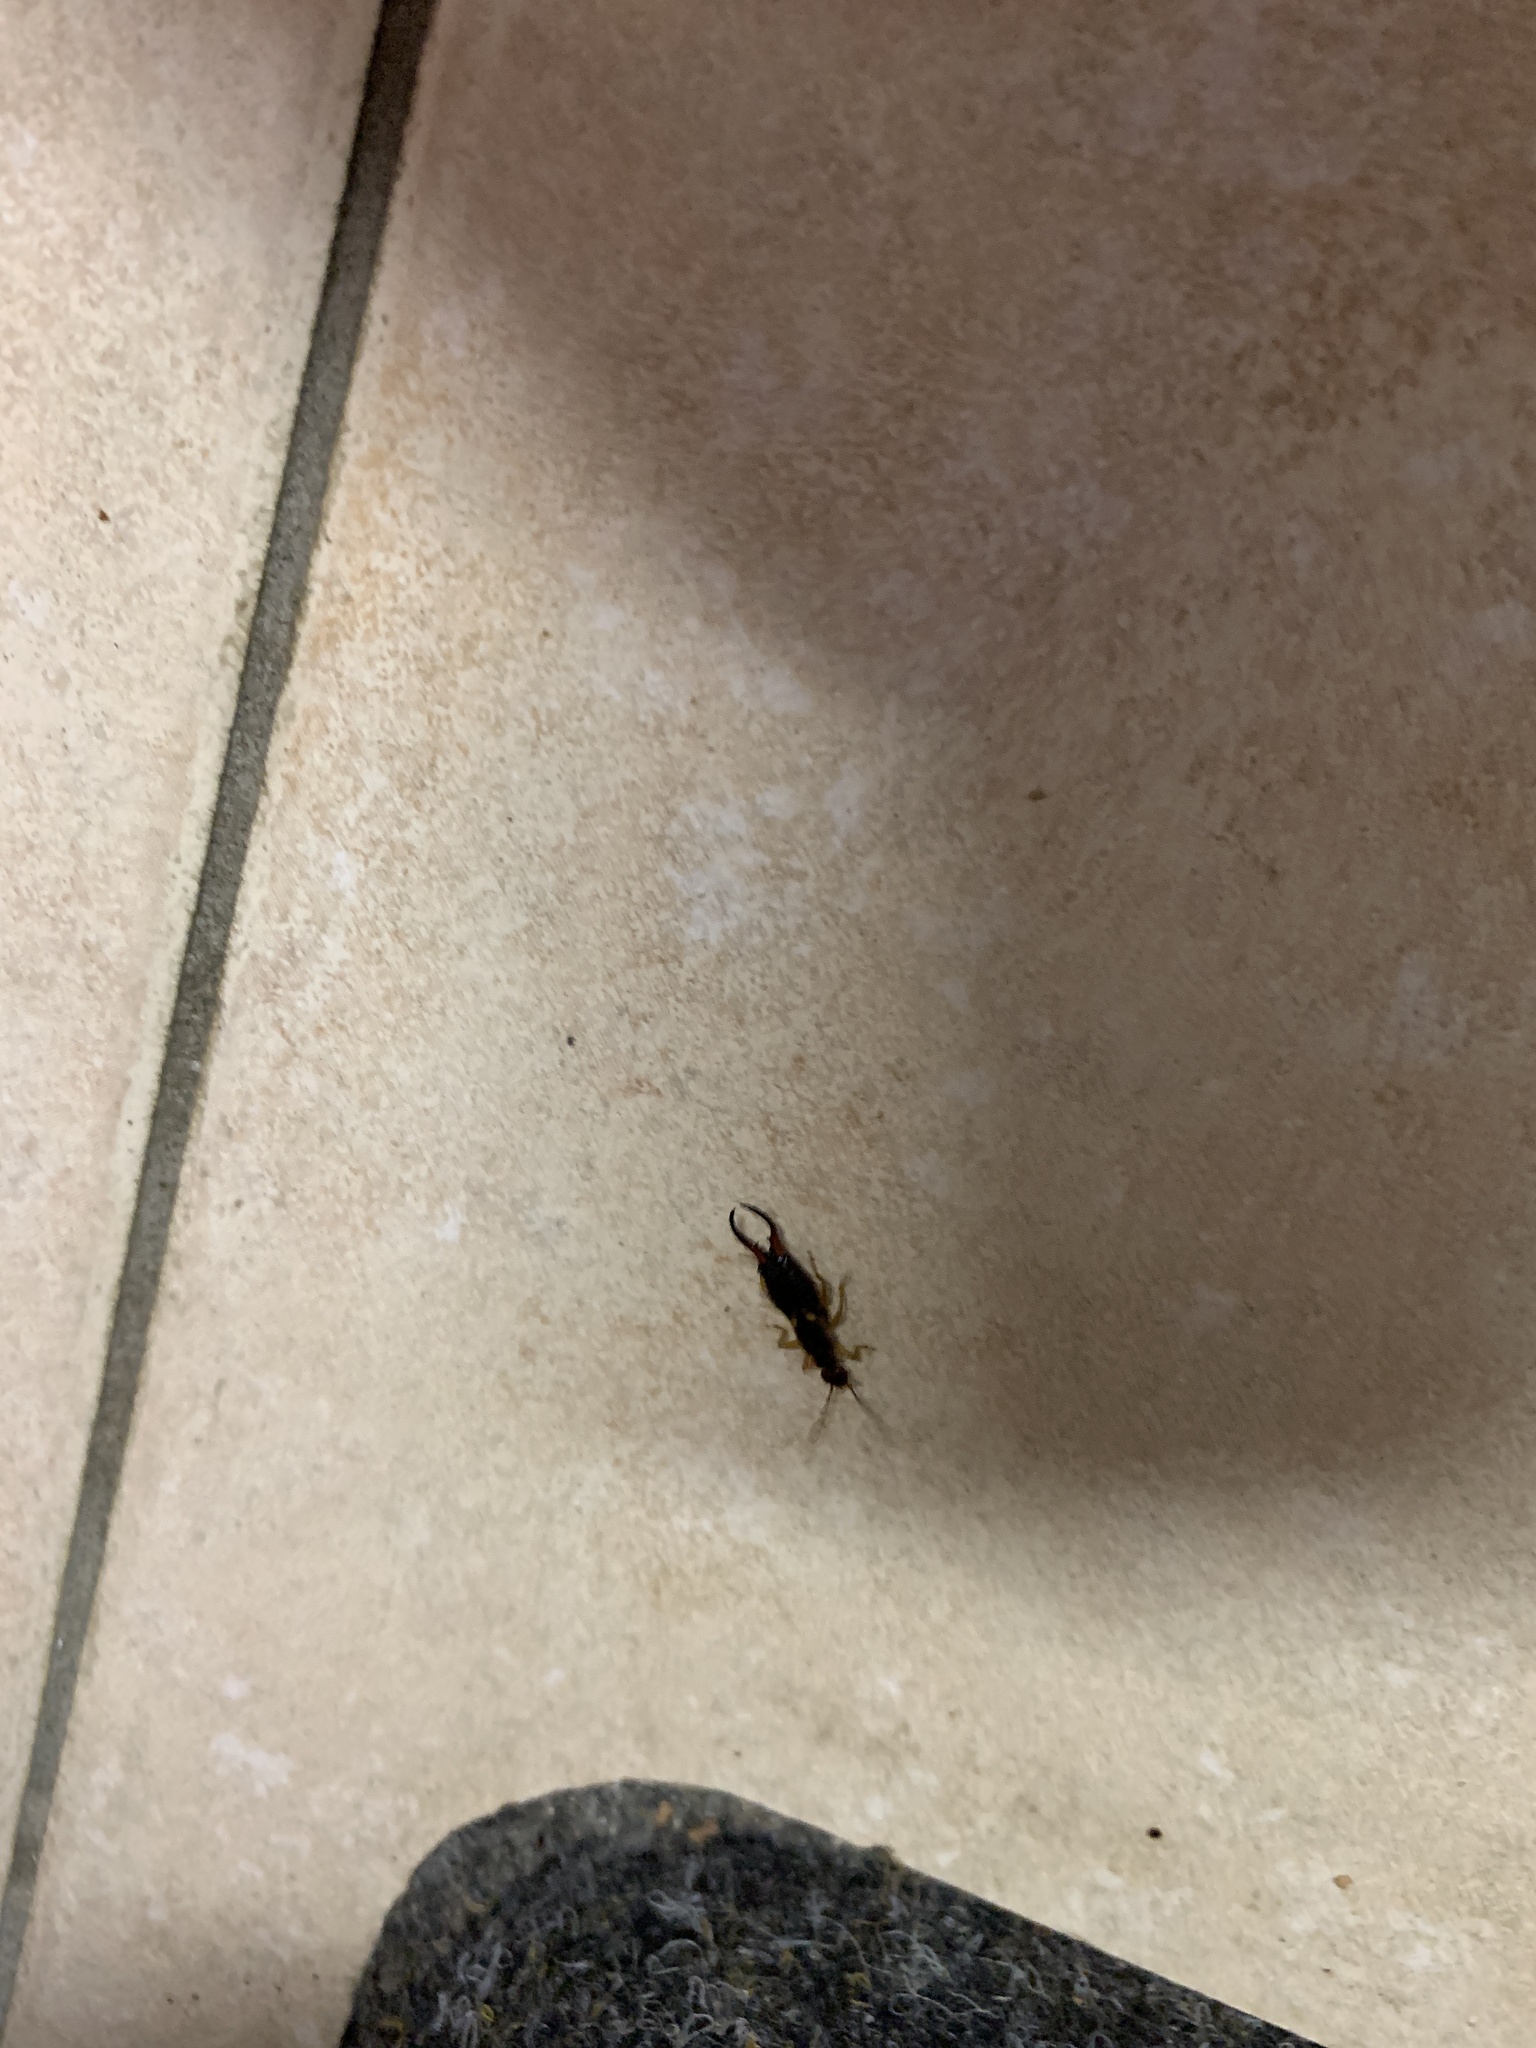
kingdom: Animalia
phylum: Arthropoda
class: Insecta
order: Dermaptera
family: Forficulidae
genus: Forficula
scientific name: Forficula
